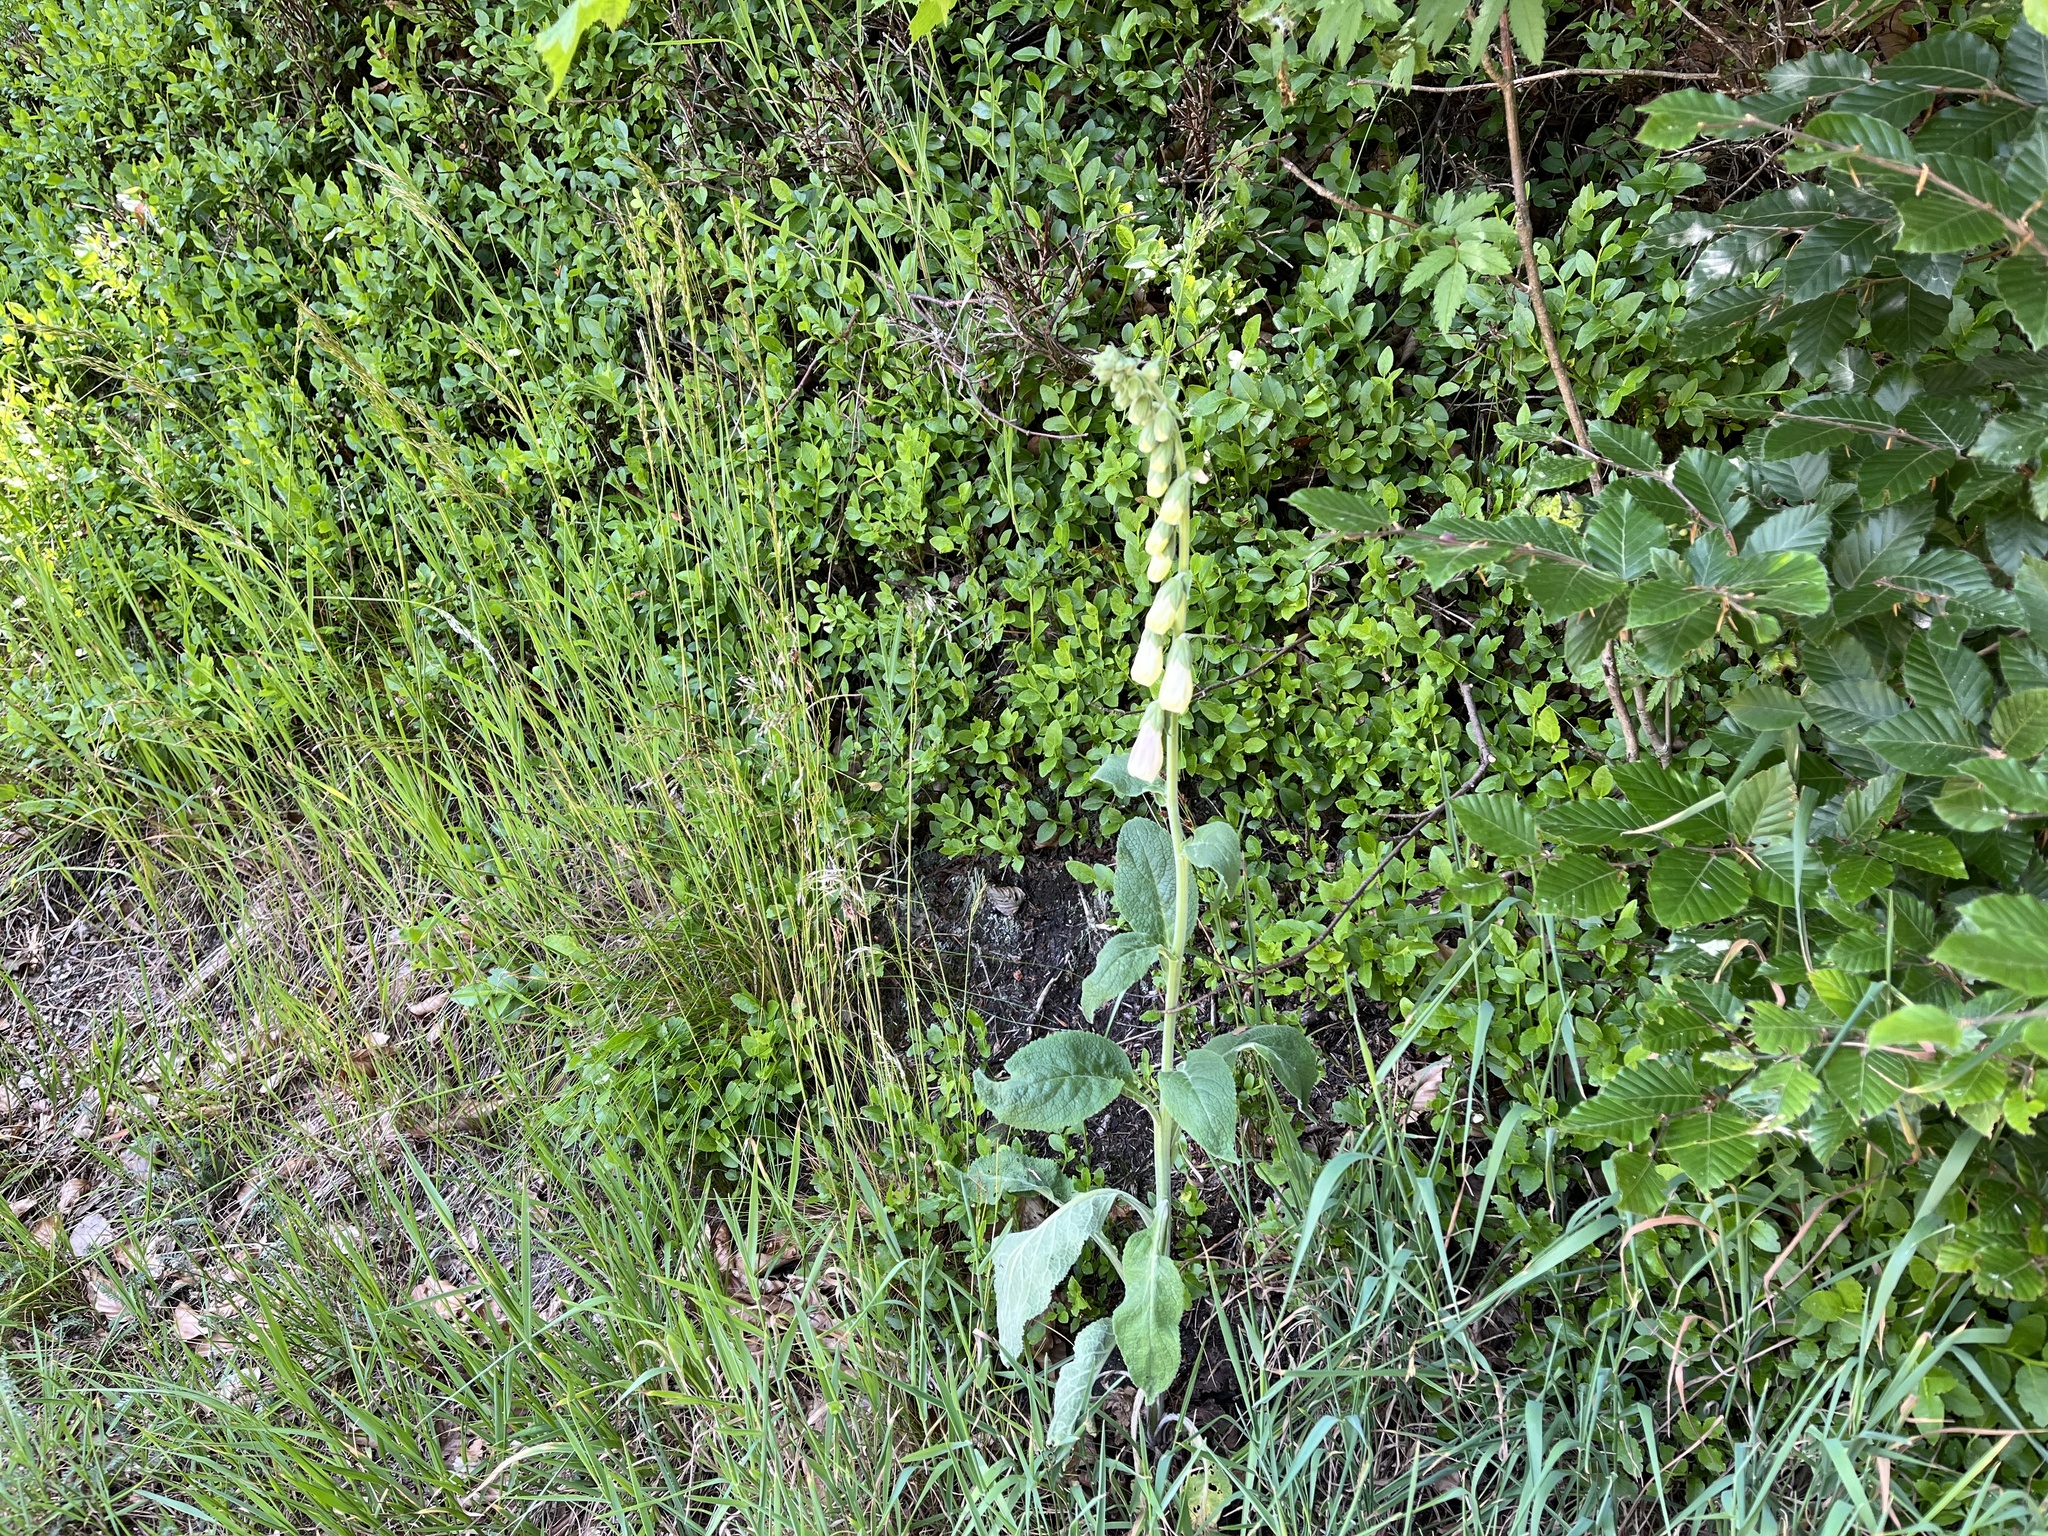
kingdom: Plantae
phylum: Tracheophyta
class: Magnoliopsida
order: Lamiales
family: Plantaginaceae
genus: Digitalis
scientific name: Digitalis purpurea
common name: Foxglove
